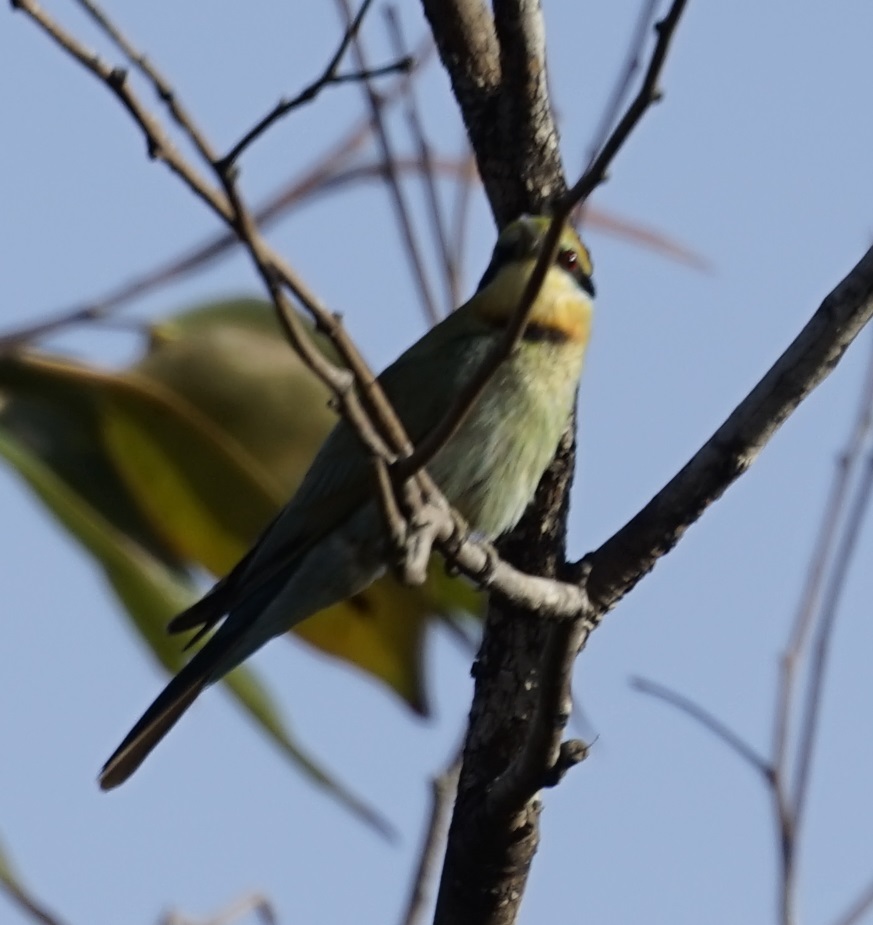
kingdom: Animalia
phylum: Chordata
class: Aves
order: Coraciiformes
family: Meropidae
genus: Merops
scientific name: Merops ornatus
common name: Rainbow bee-eater
